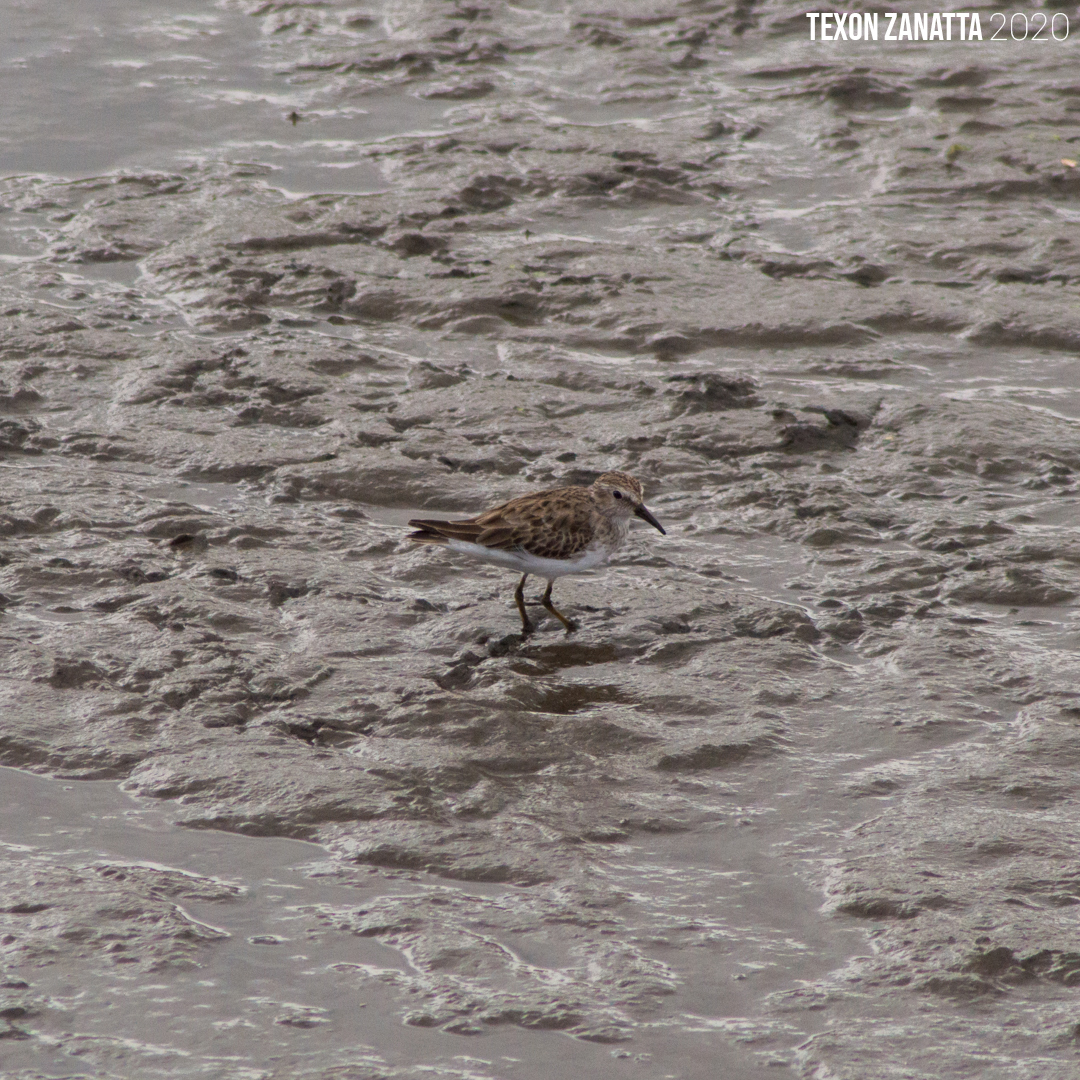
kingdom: Animalia
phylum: Chordata
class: Aves
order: Charadriiformes
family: Scolopacidae
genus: Calidris
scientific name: Calidris minutilla
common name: Least sandpiper
